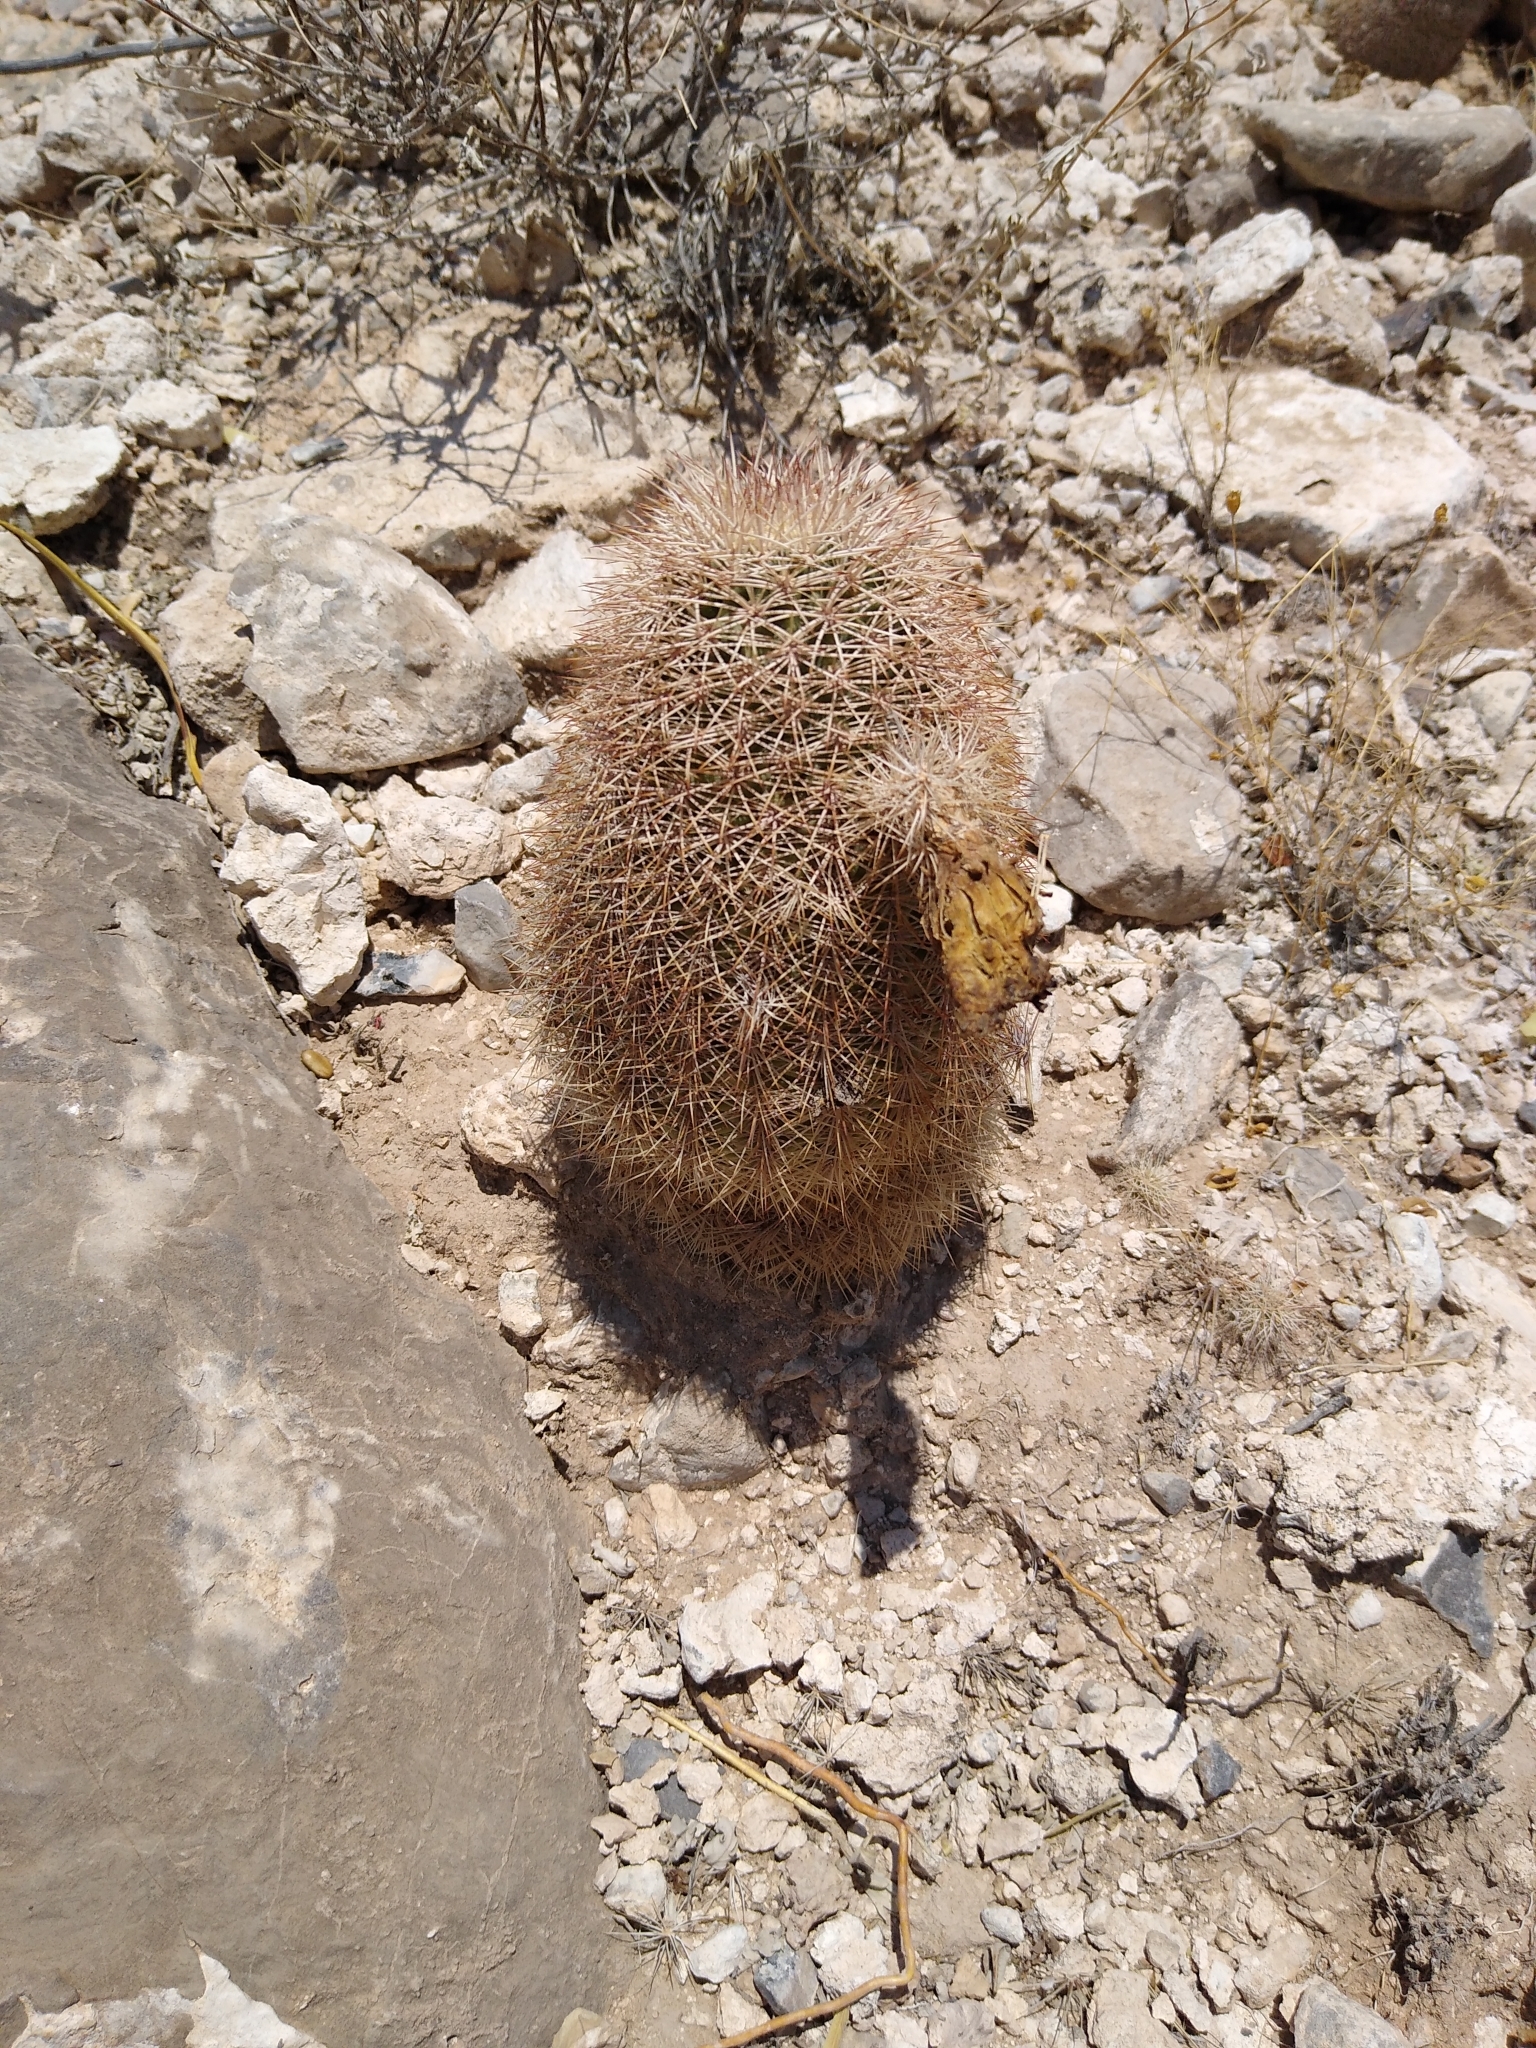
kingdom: Plantae
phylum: Tracheophyta
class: Magnoliopsida
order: Caryophyllales
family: Cactaceae
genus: Echinocereus
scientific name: Echinocereus dasyacanthus
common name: Spiny hedgehog cactus
